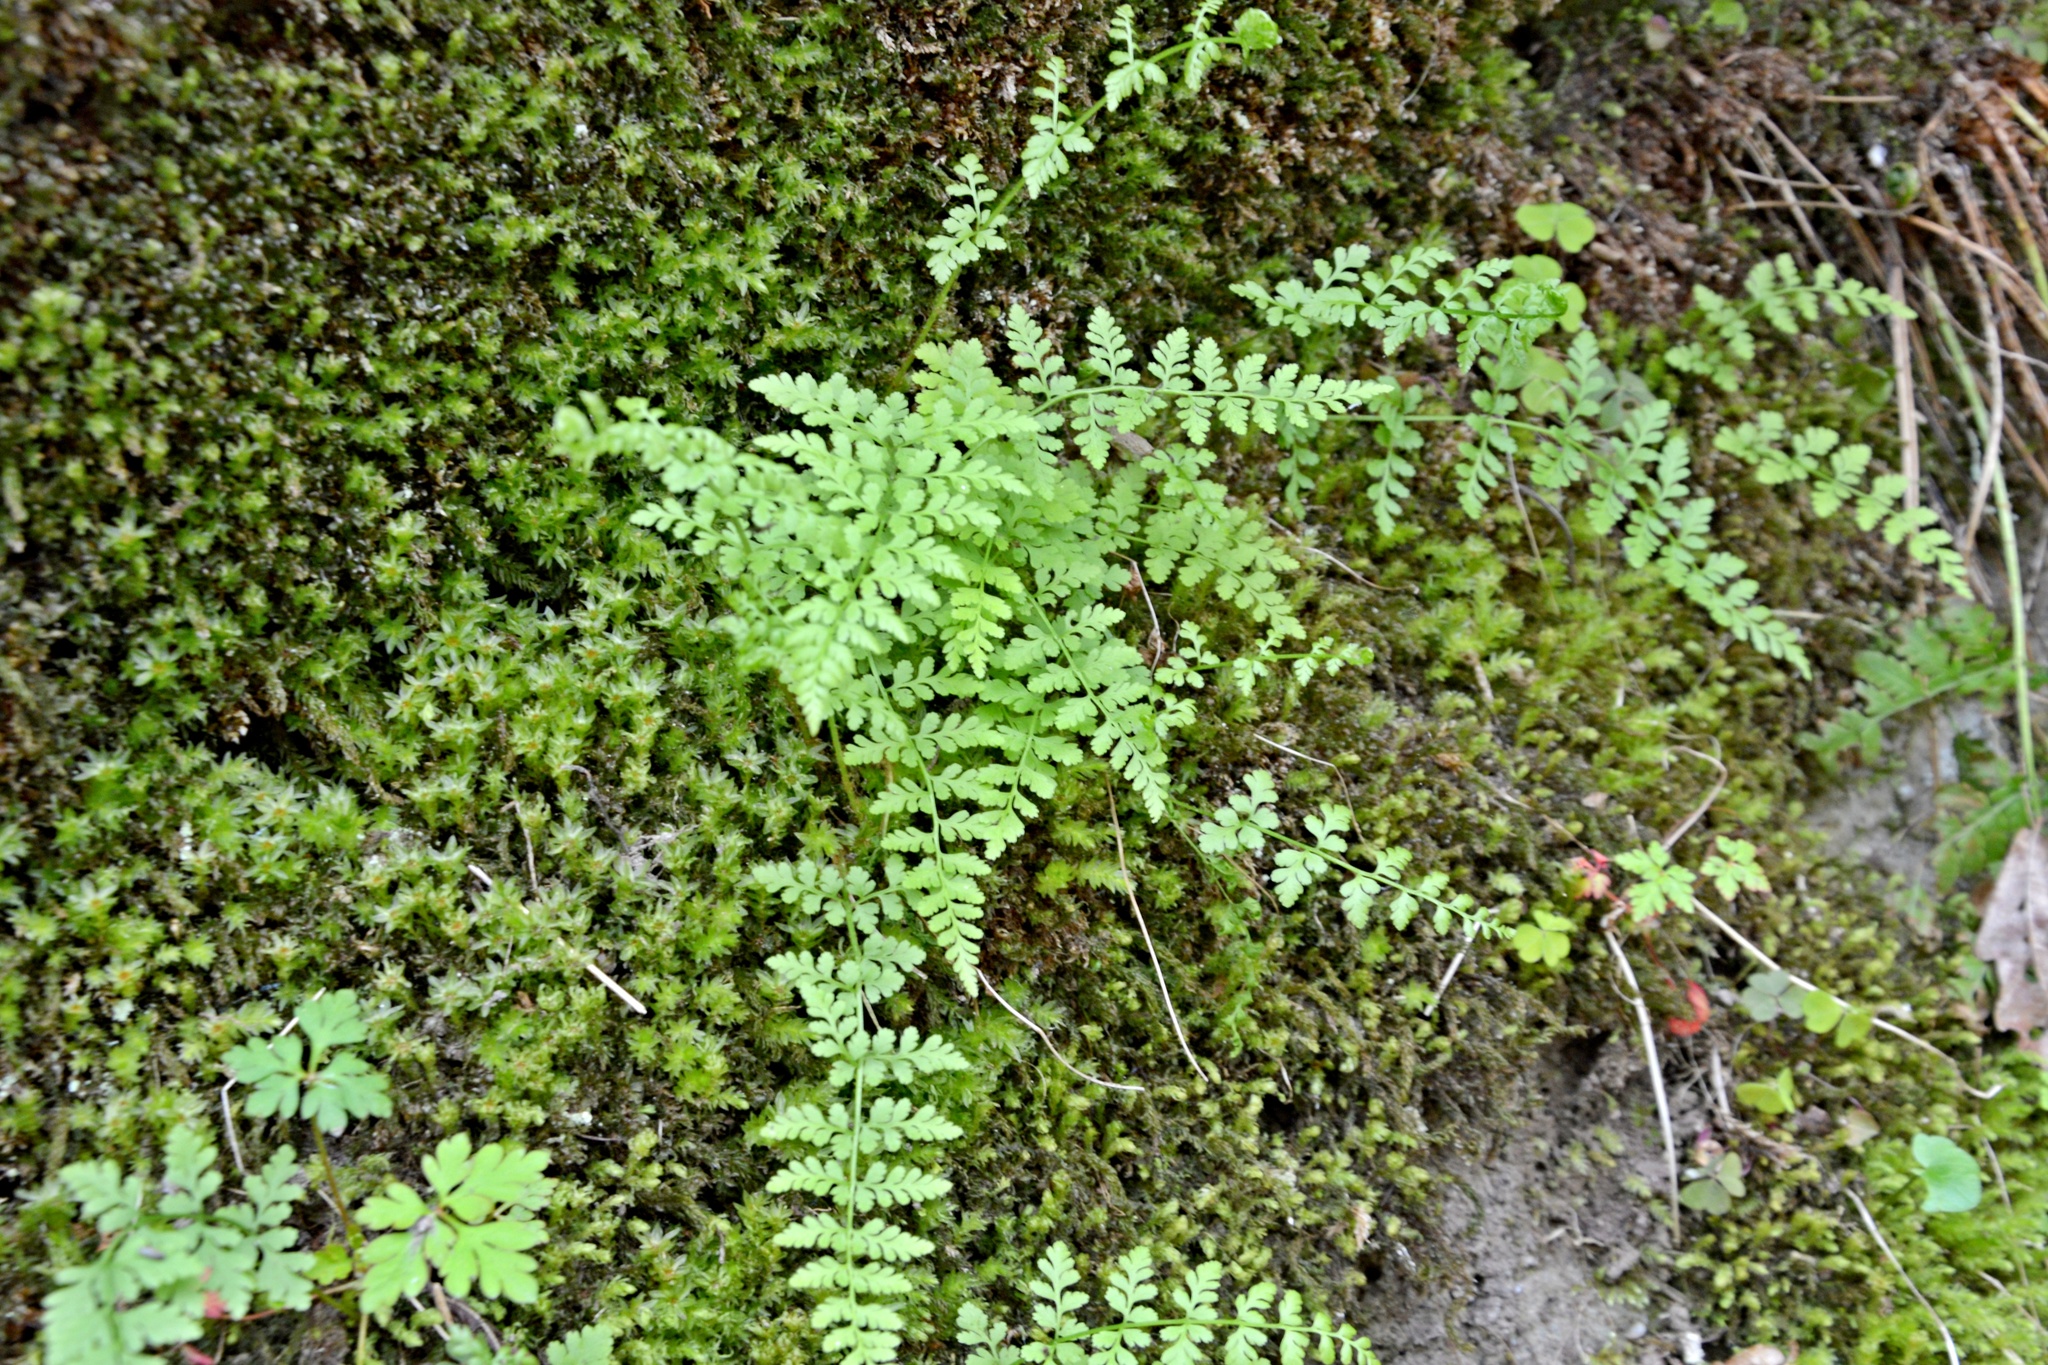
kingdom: Plantae
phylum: Tracheophyta
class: Polypodiopsida
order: Polypodiales
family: Cystopteridaceae
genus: Cystopteris
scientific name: Cystopteris fragilis
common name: Brittle bladder fern
